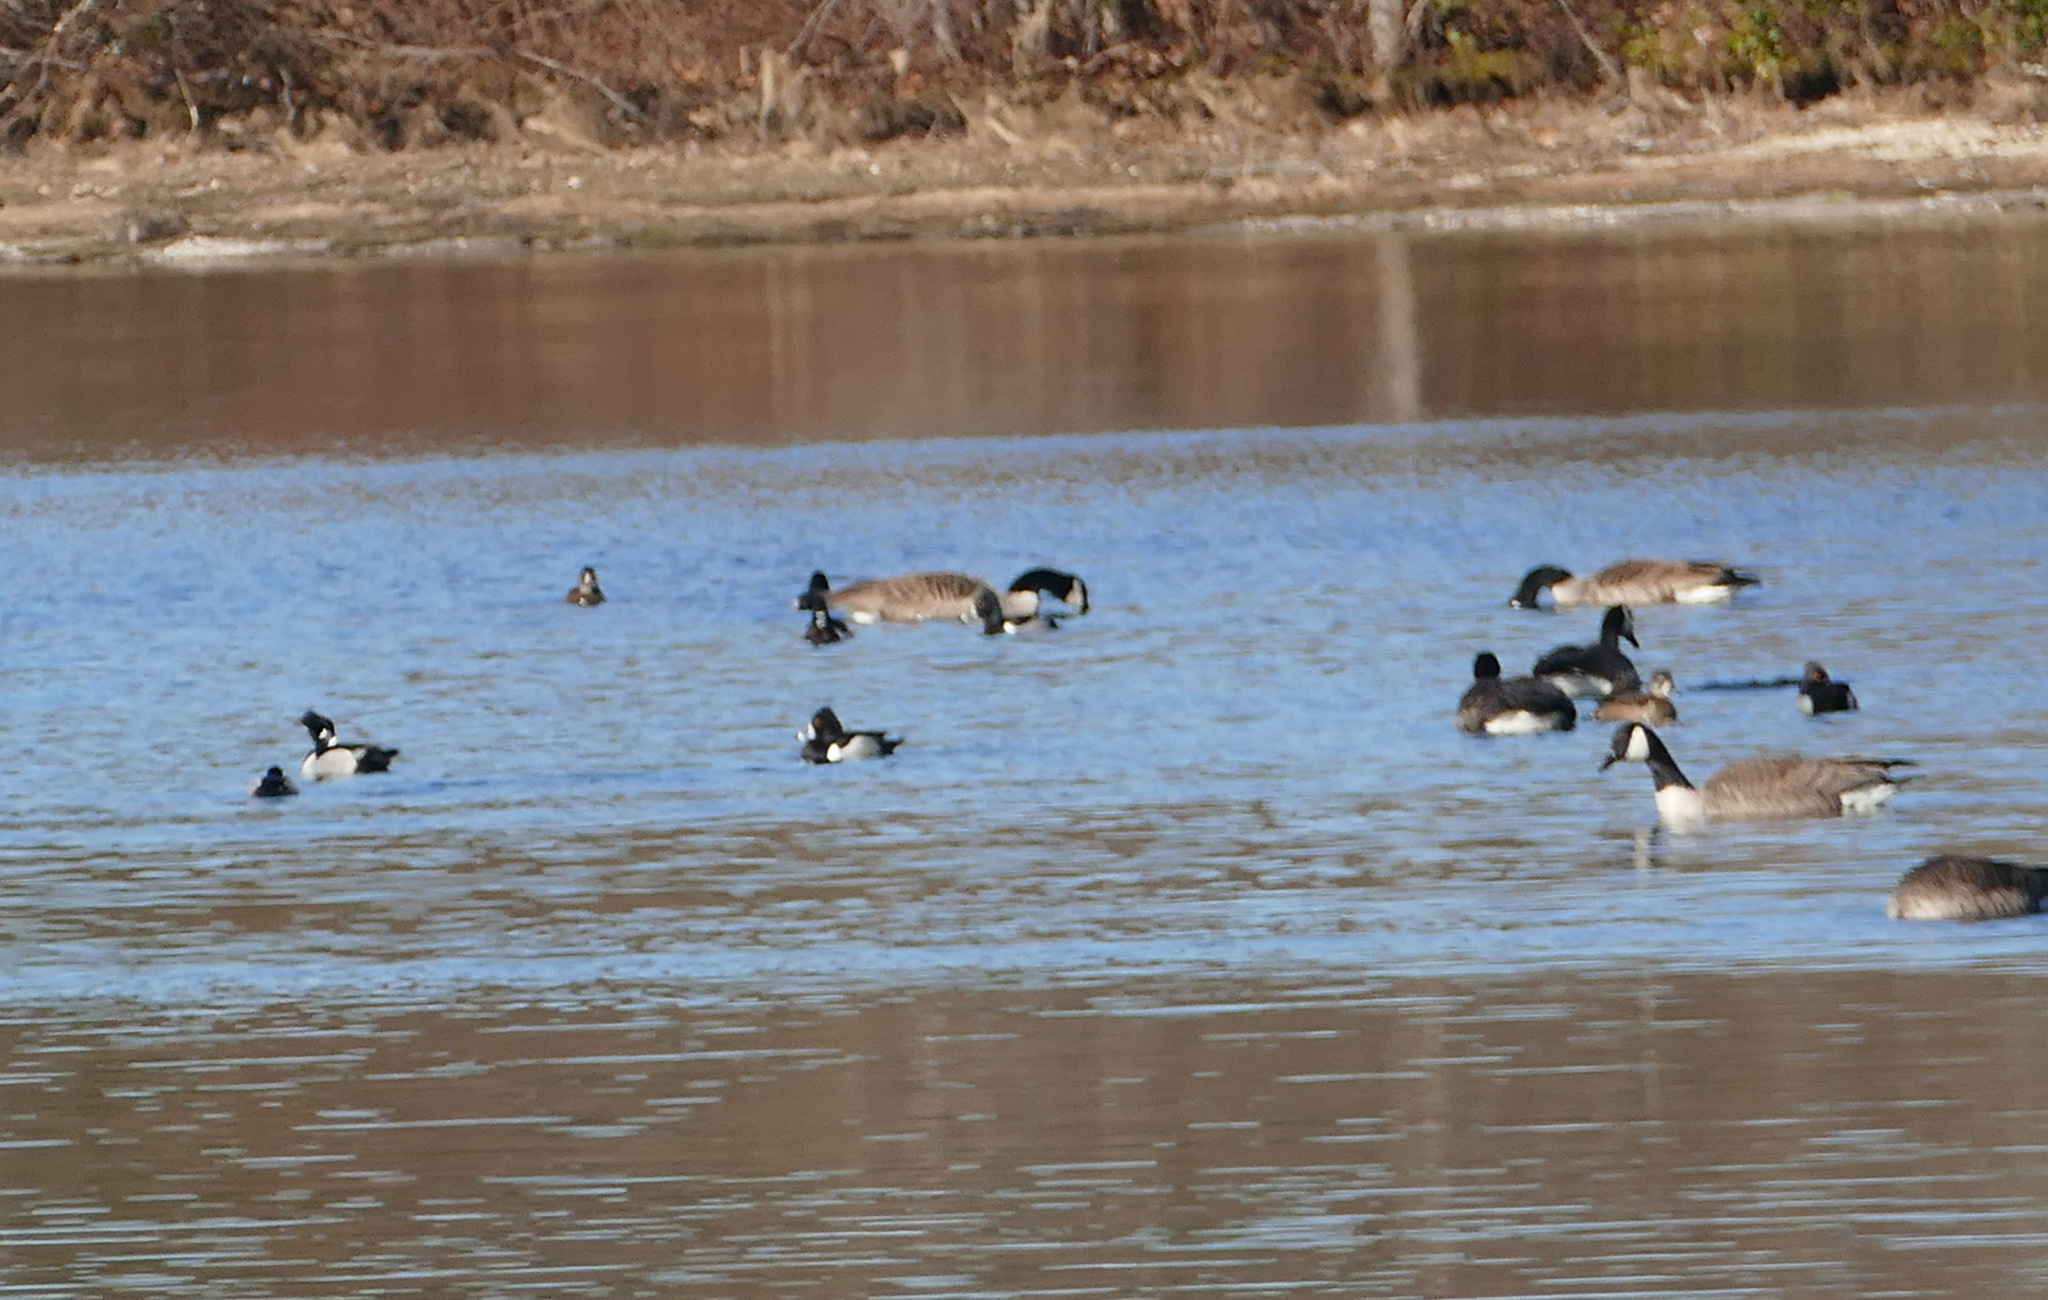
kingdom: Animalia
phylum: Chordata
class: Aves
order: Anseriformes
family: Anatidae
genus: Aythya
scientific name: Aythya collaris
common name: Ring-necked duck
